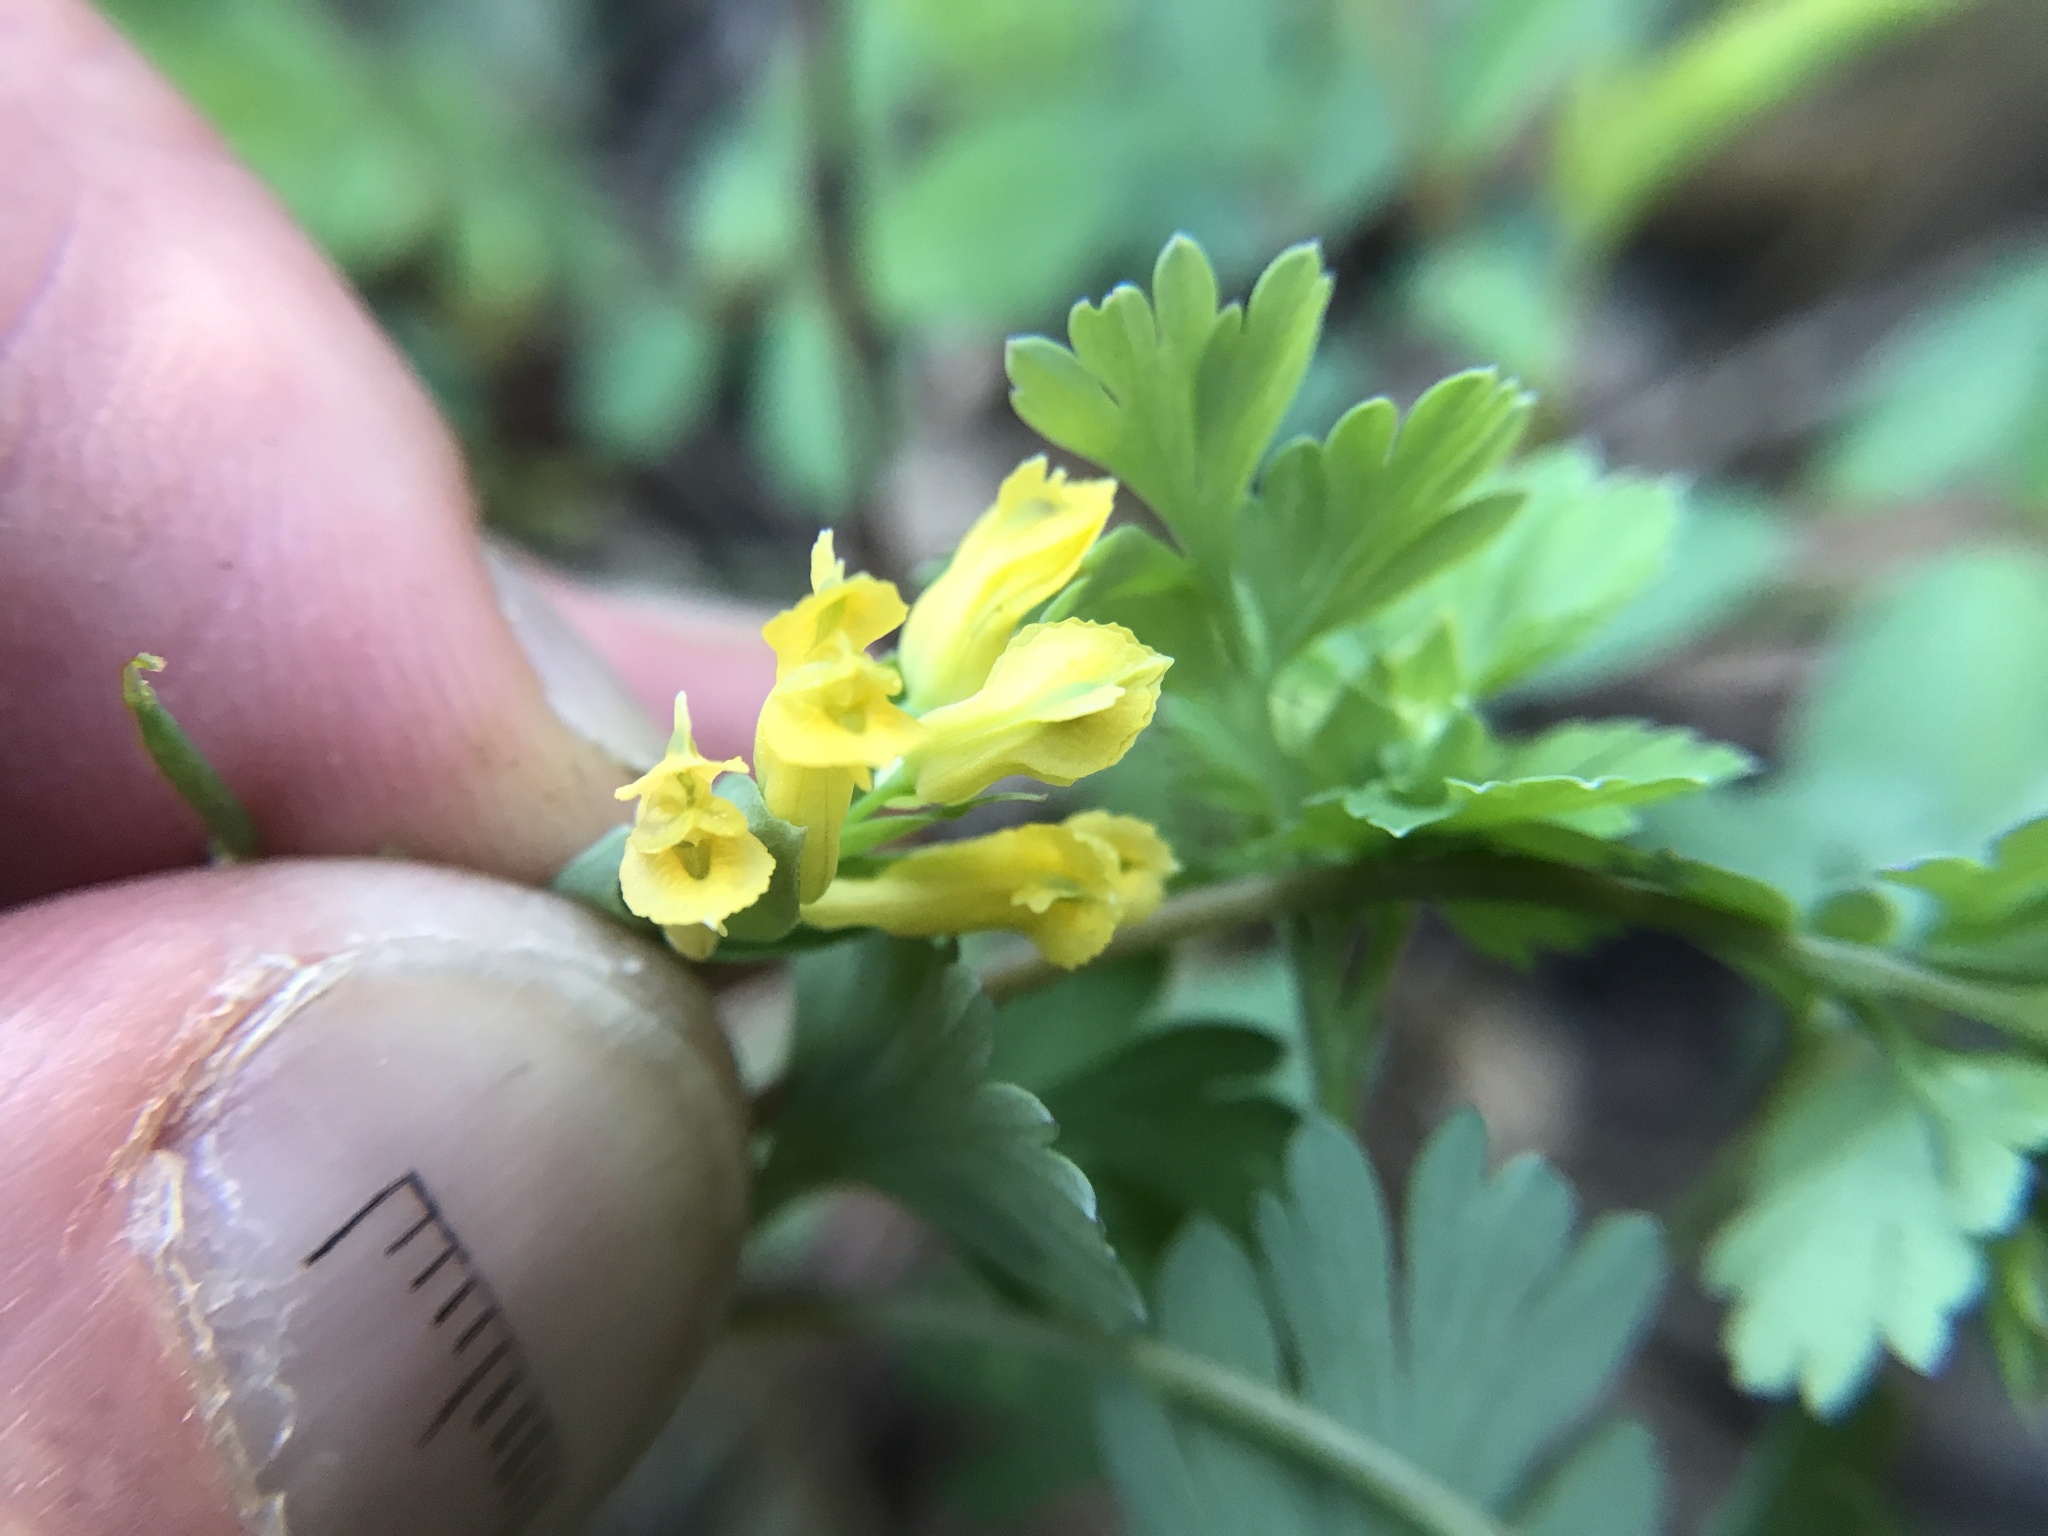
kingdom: Plantae
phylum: Tracheophyta
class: Magnoliopsida
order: Ranunculales
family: Papaveraceae
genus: Corydalis
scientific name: Corydalis flavula
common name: Yellow corydalis
